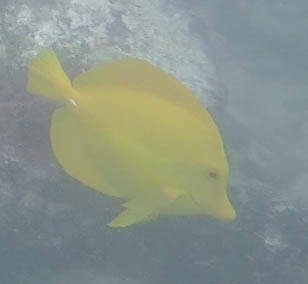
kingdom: Animalia
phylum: Chordata
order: Perciformes
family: Acanthuridae
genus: Zebrasoma
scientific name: Zebrasoma flavescens
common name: Yellow tang
